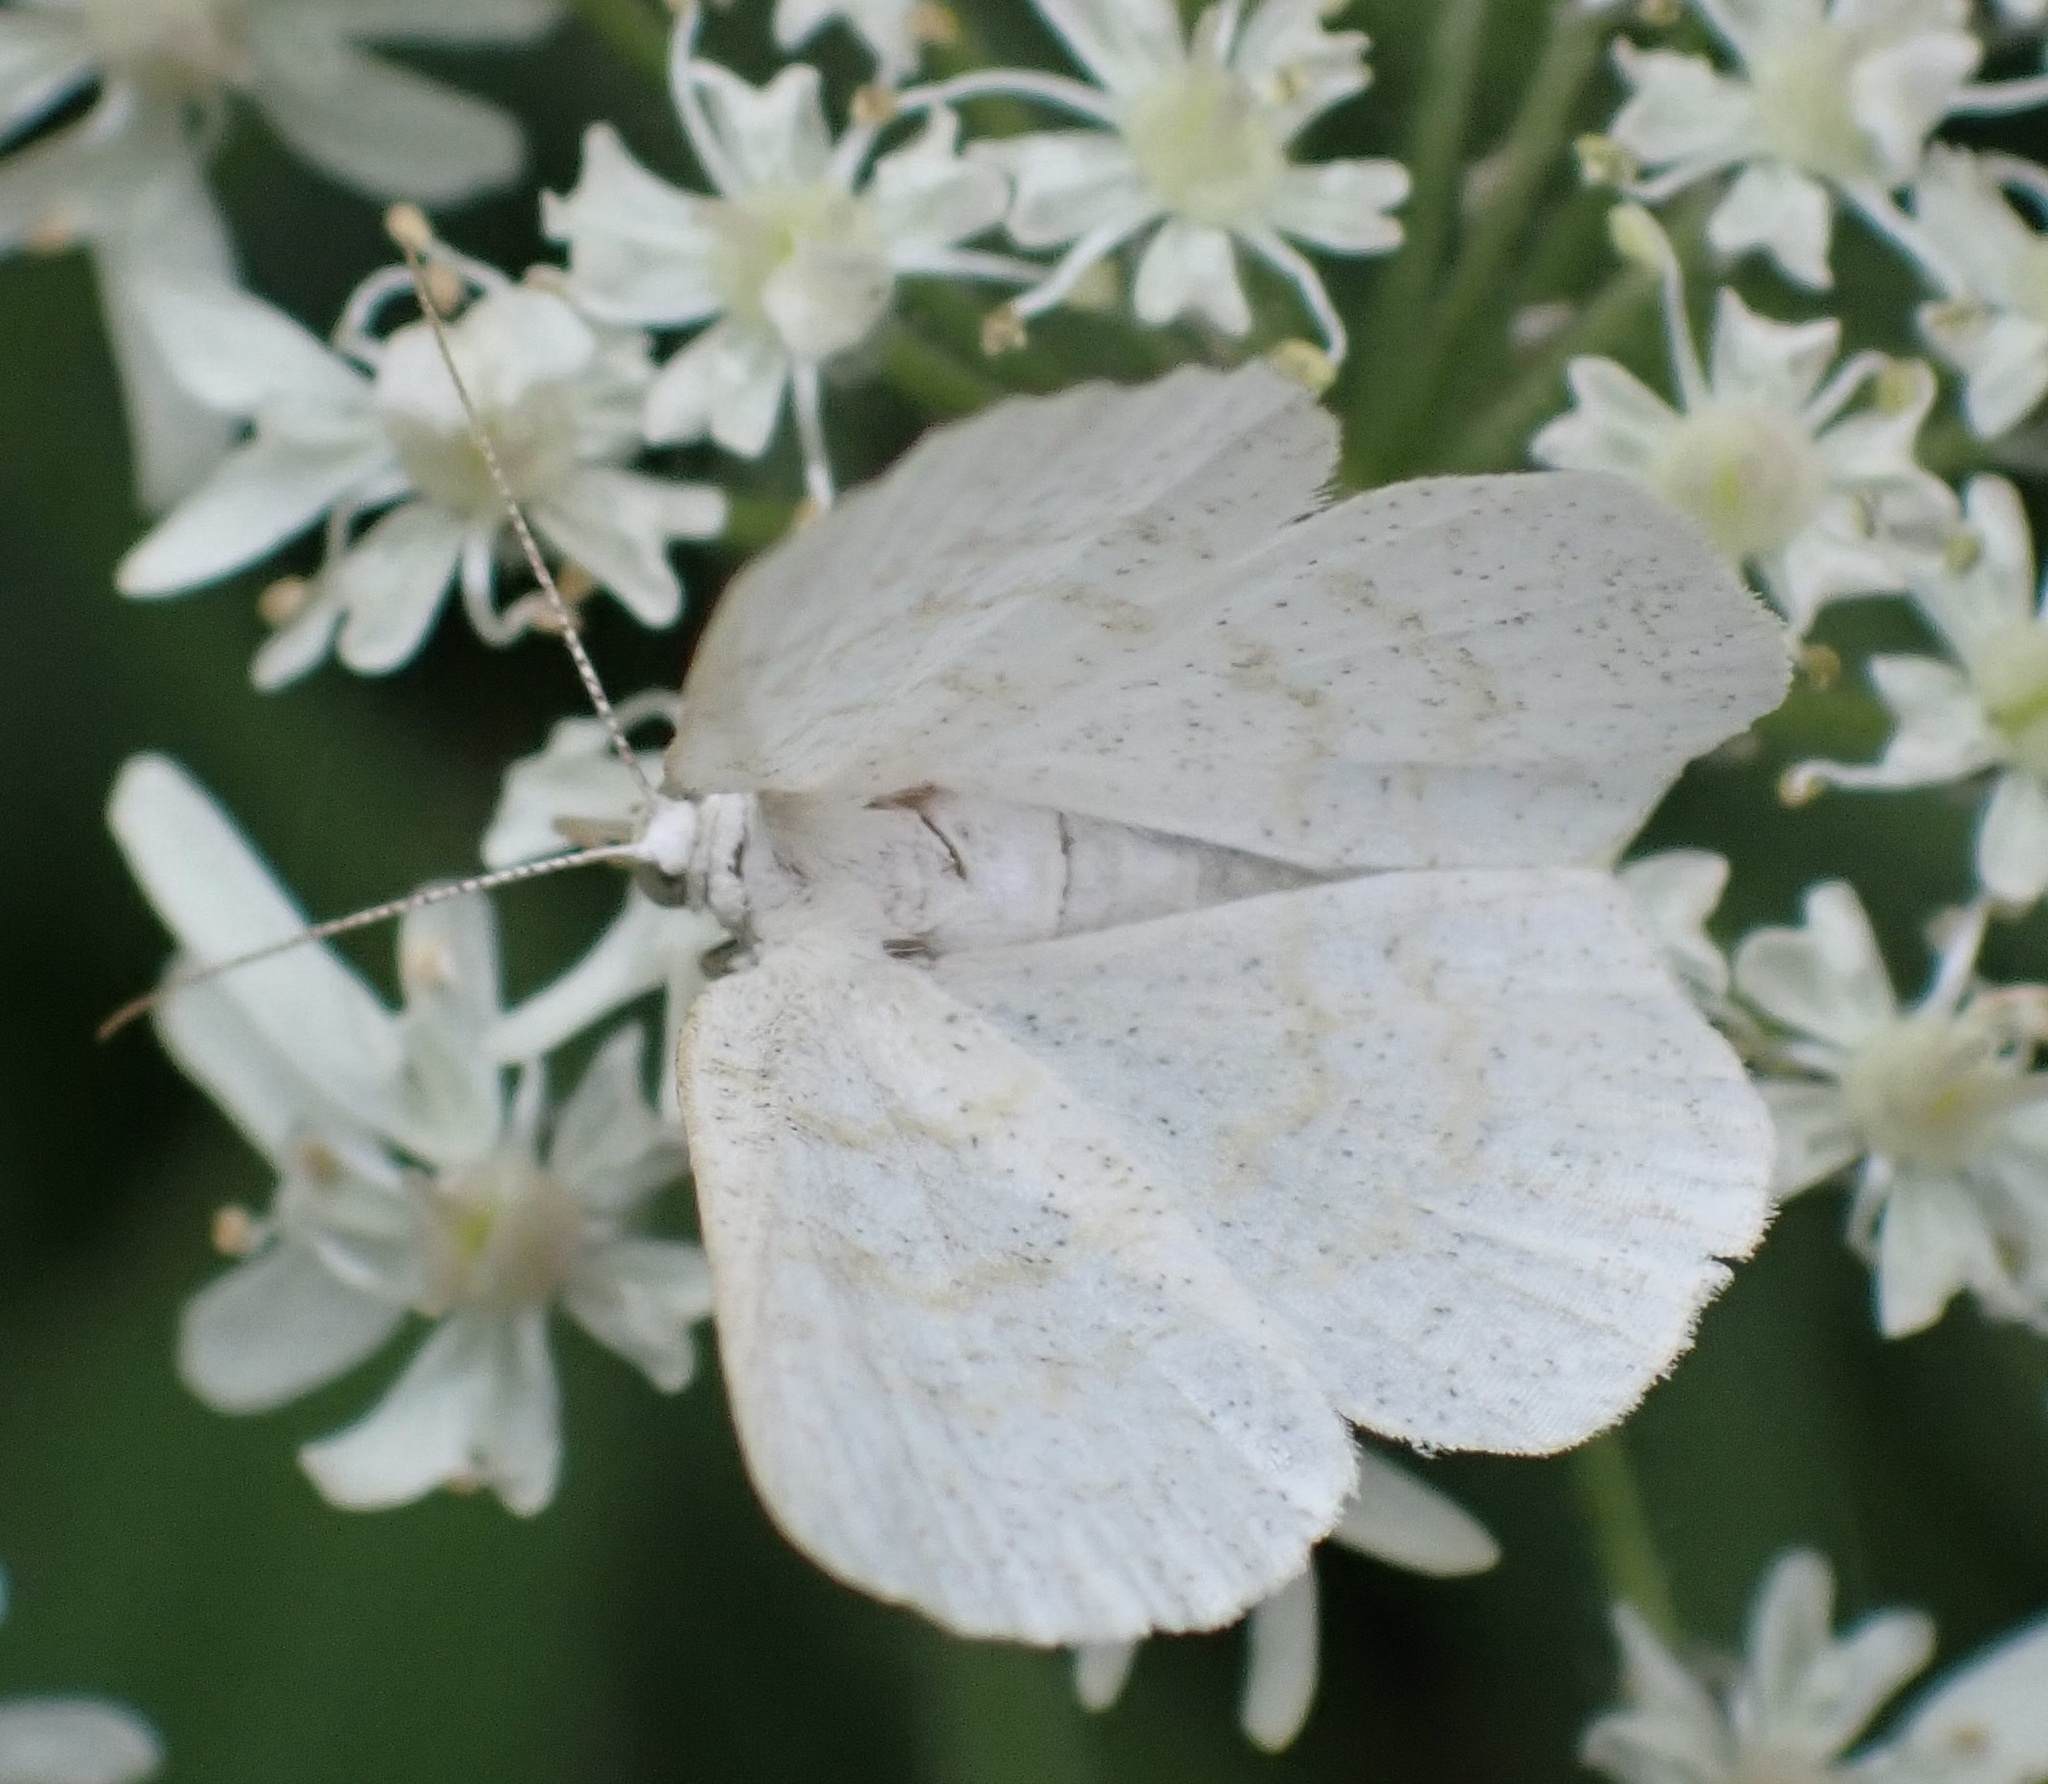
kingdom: Animalia
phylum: Arthropoda
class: Insecta
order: Lepidoptera
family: Geometridae
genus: Cabera
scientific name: Cabera exanthemata
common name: Common wave
